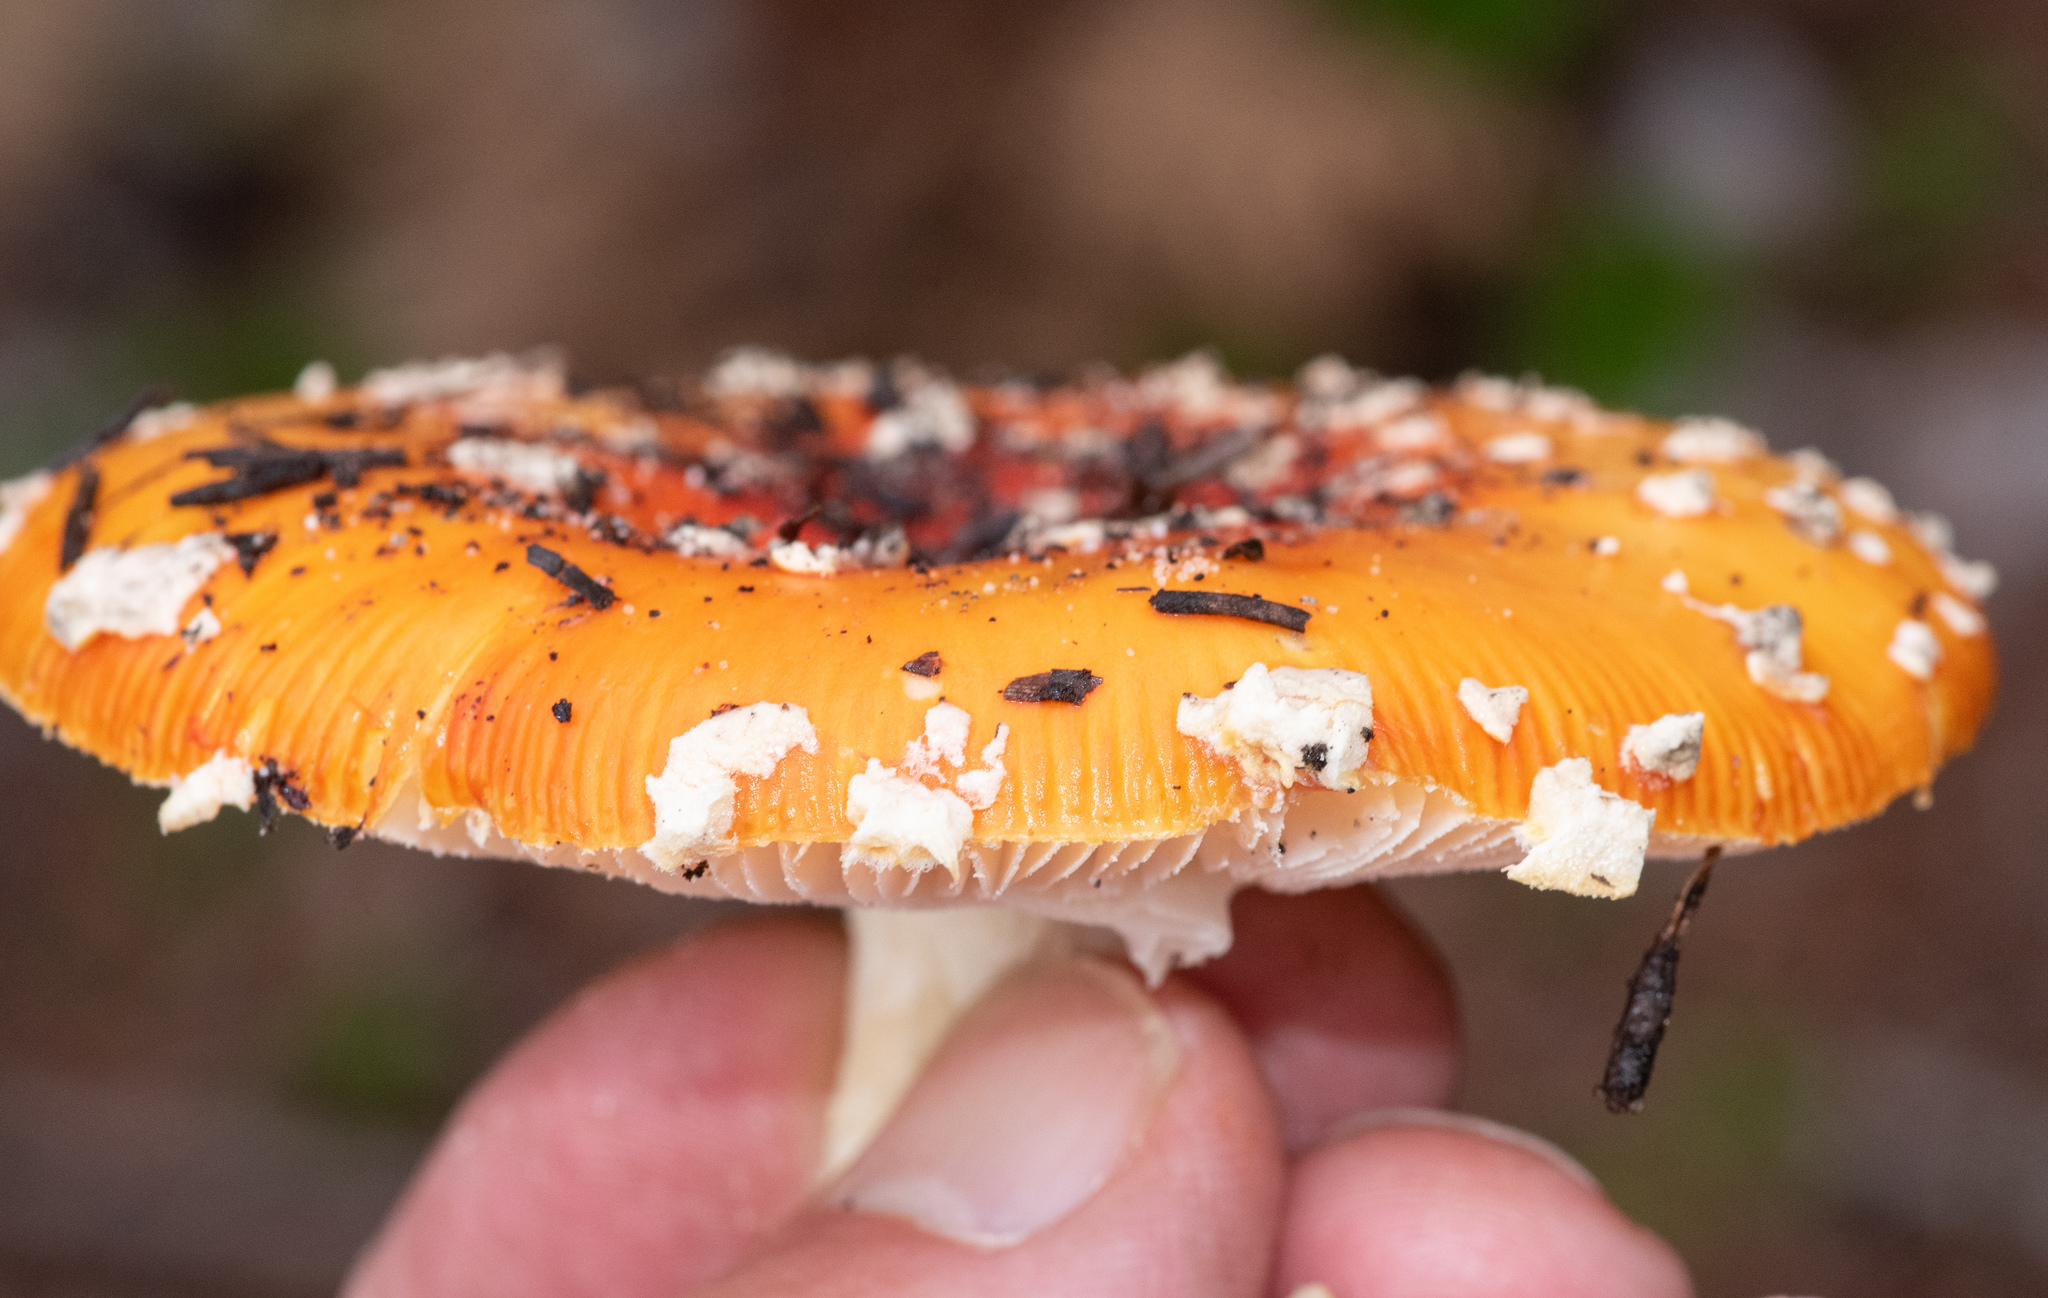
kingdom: Fungi
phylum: Basidiomycota
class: Agaricomycetes
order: Agaricales
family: Amanitaceae
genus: Amanita
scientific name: Amanita muscaria
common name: Fly agaric
